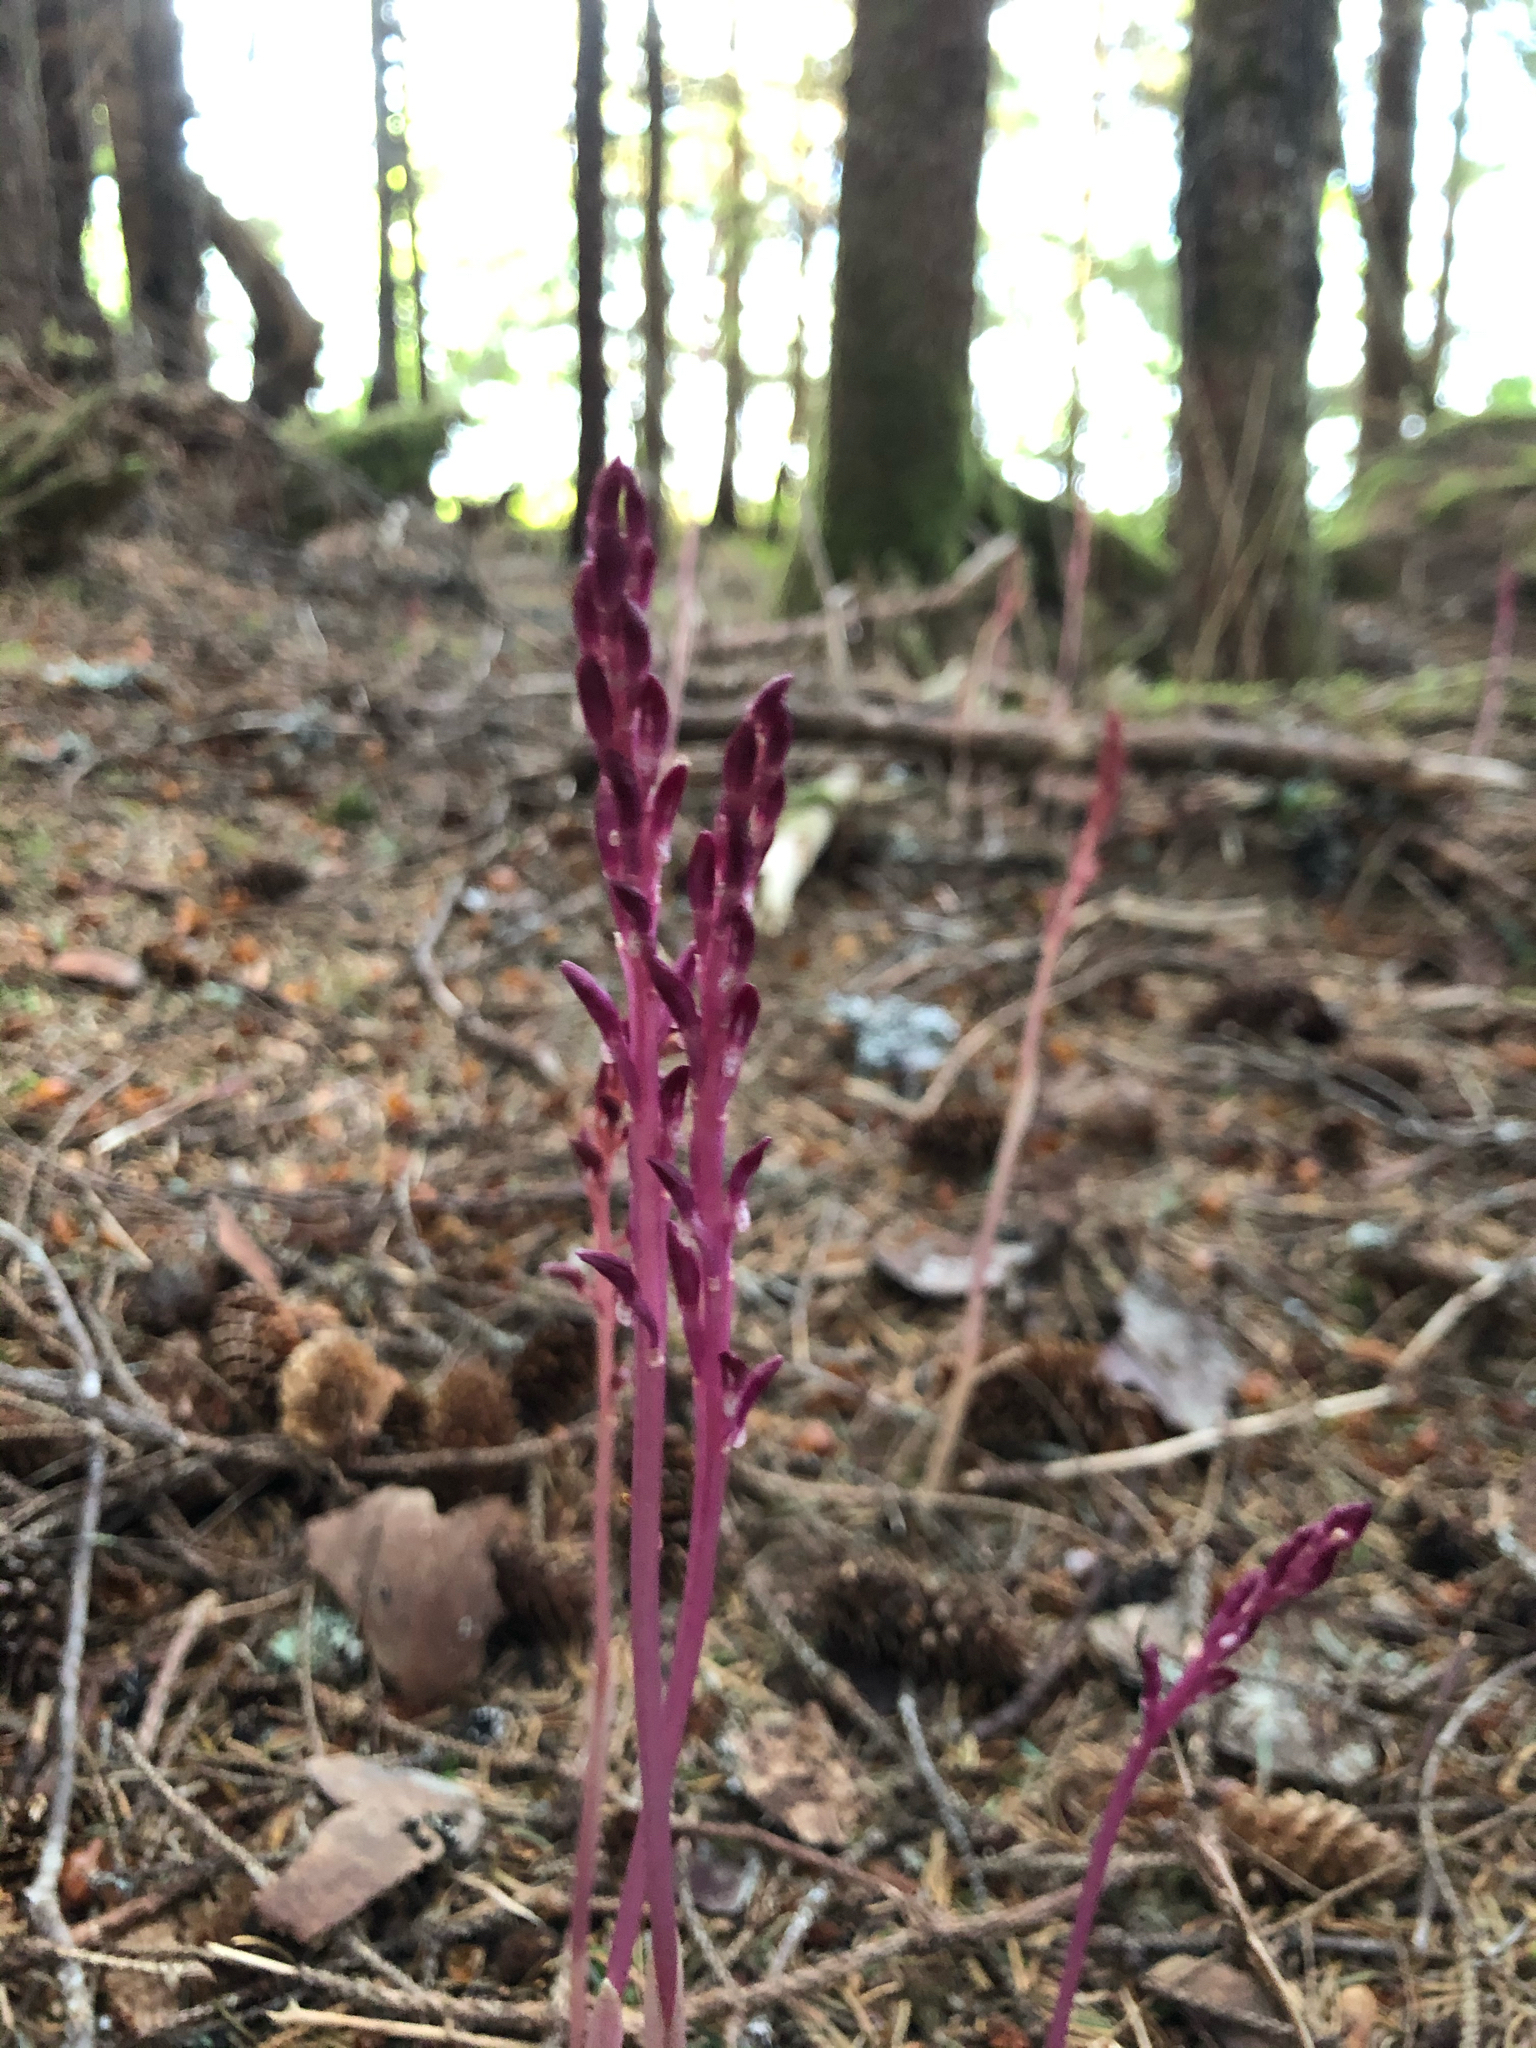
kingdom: Plantae
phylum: Tracheophyta
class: Liliopsida
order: Asparagales
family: Orchidaceae
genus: Corallorhiza
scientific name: Corallorhiza mertensiana
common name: Pacific coralroot
